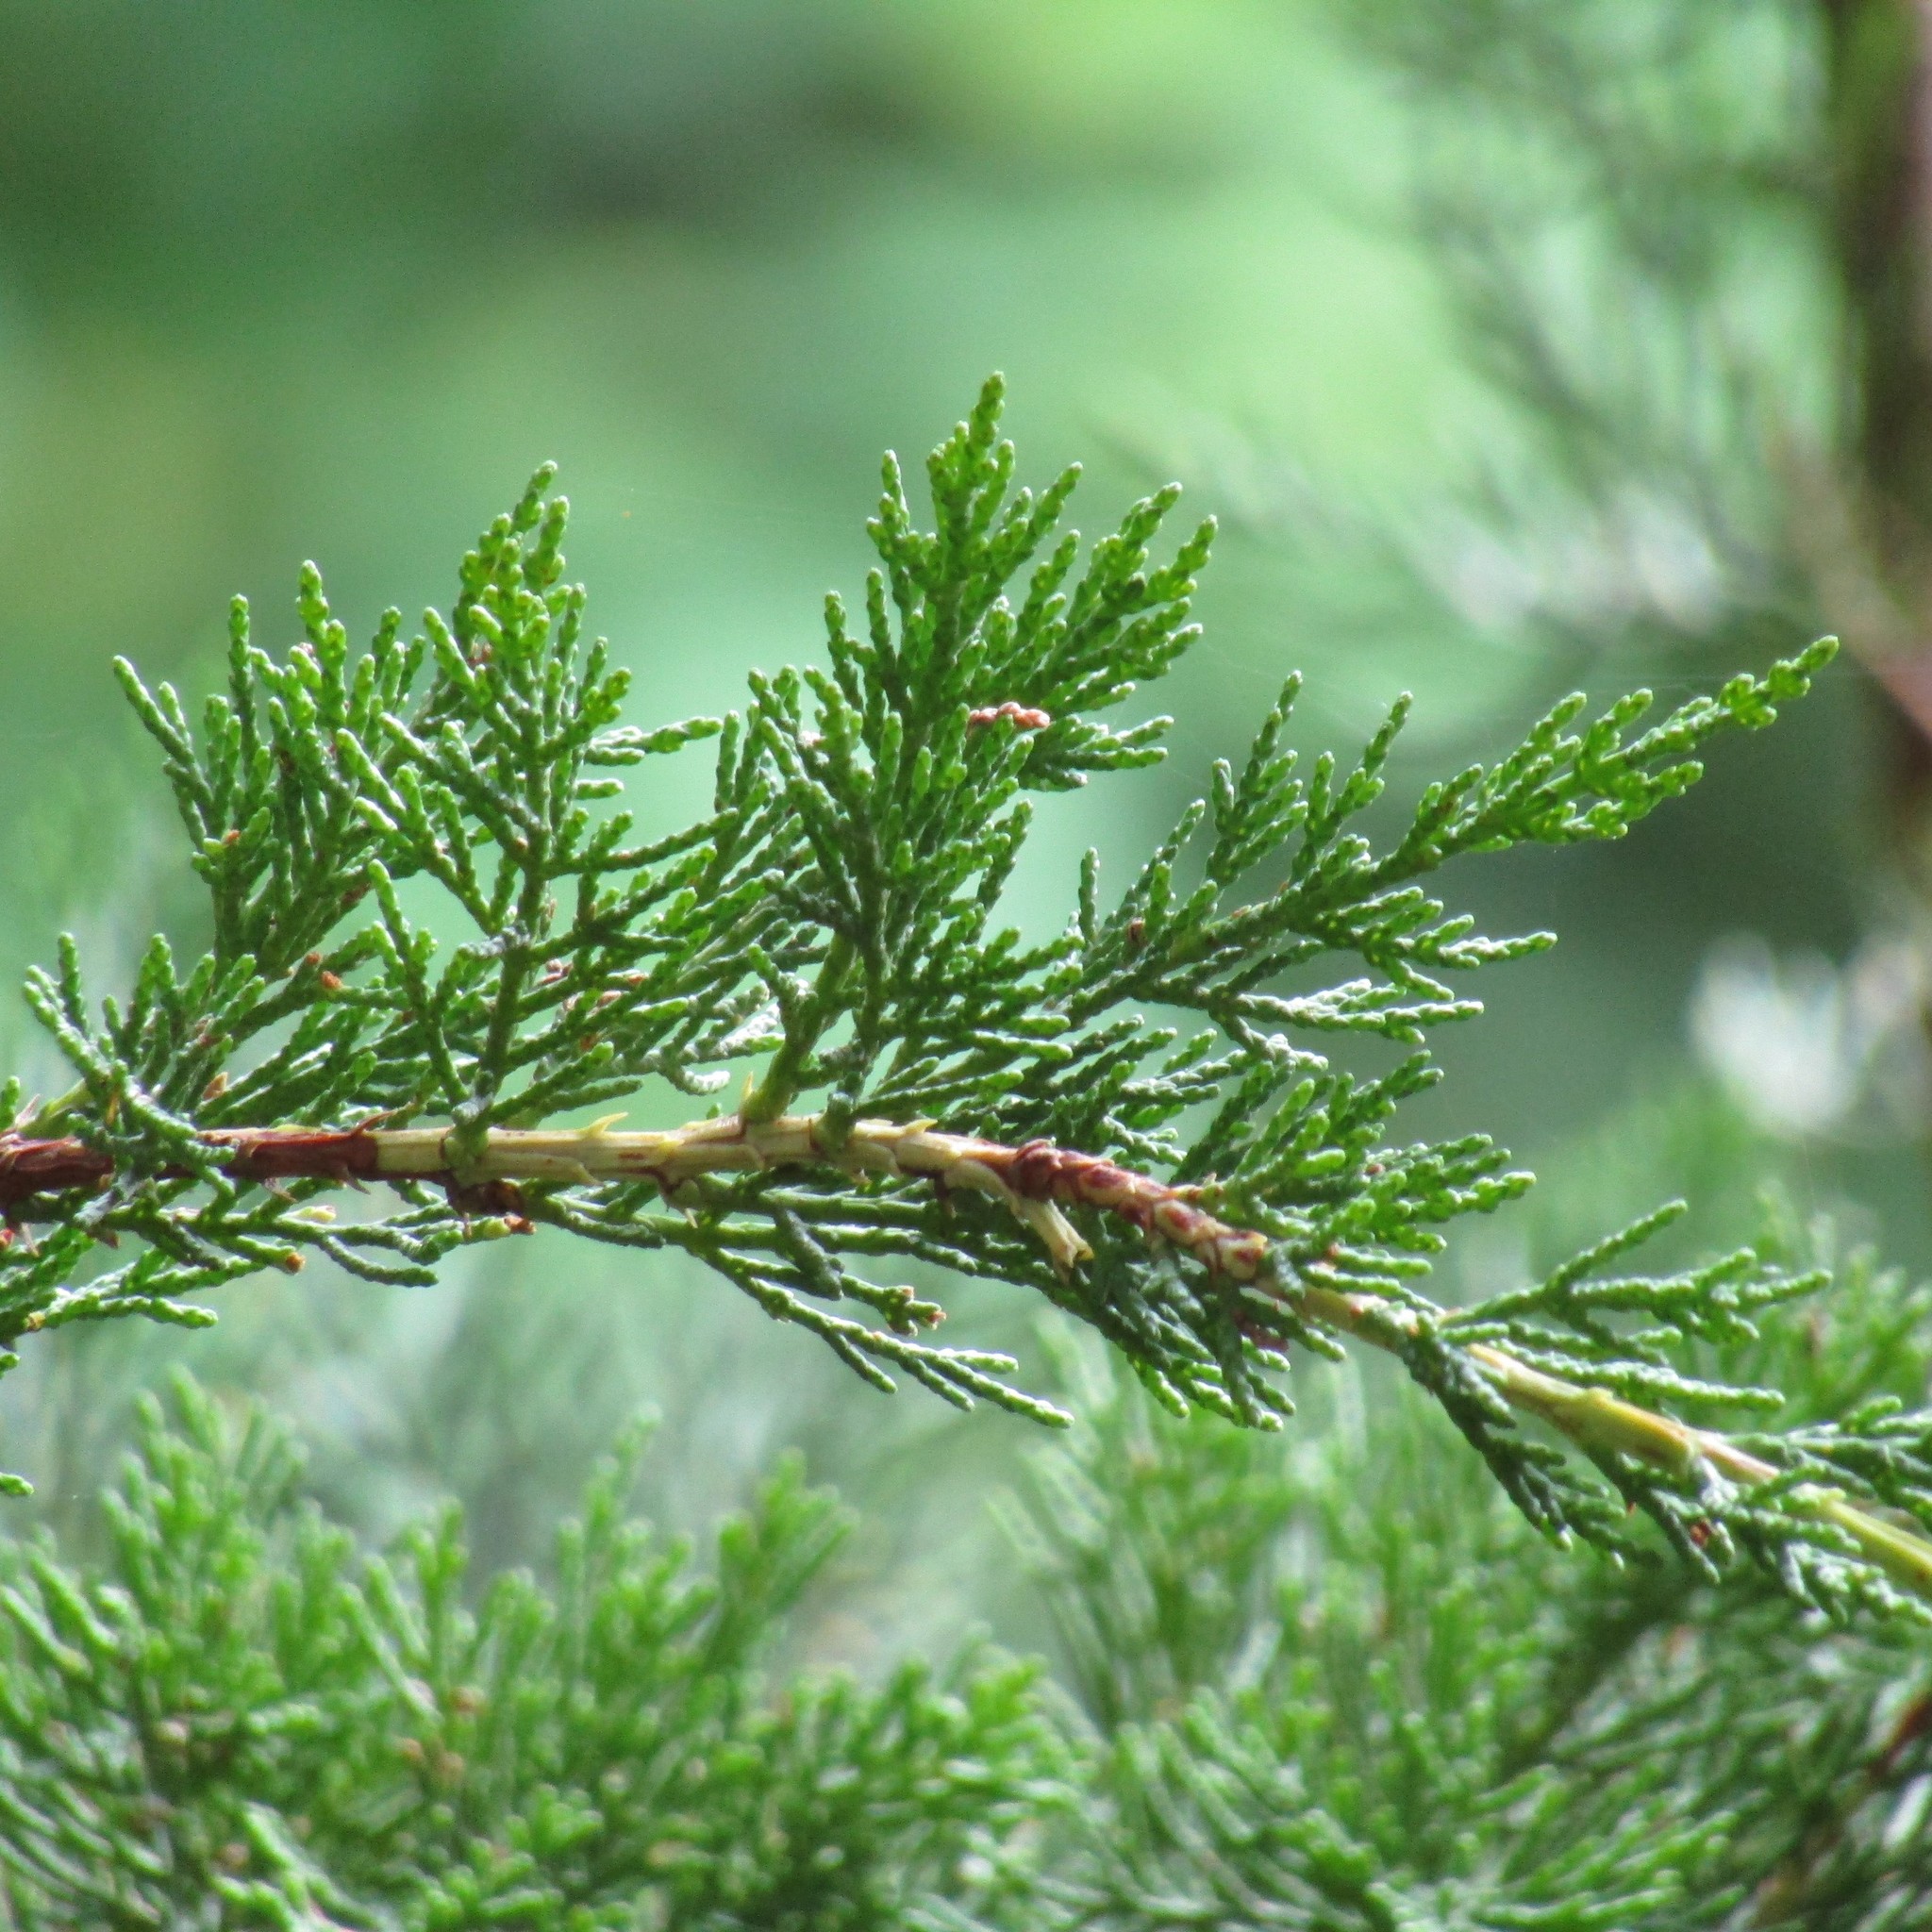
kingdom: Plantae
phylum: Tracheophyta
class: Pinopsida
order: Pinales
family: Cupressaceae
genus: Cupressus
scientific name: Cupressus macrocarpa
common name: Monterey cypress
